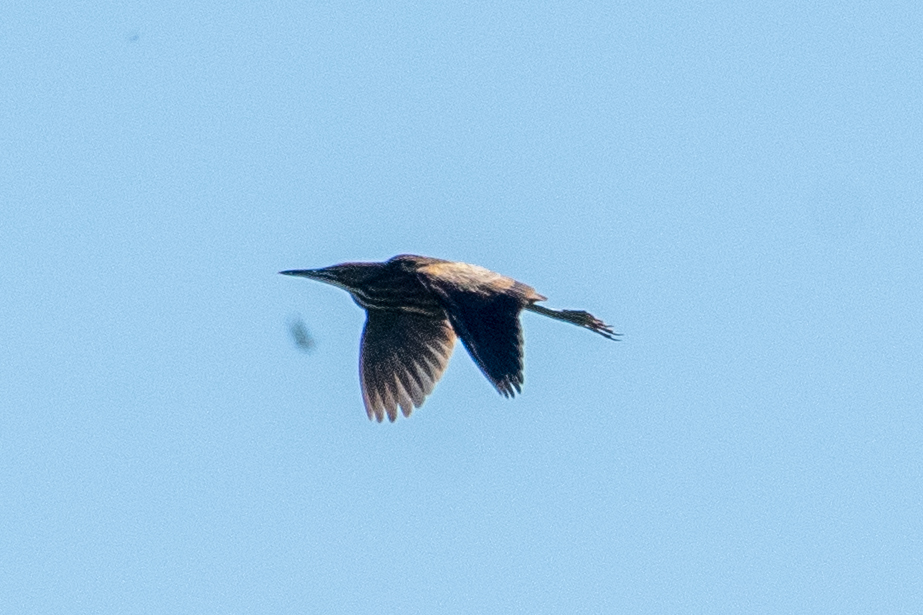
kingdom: Animalia
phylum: Chordata
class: Aves
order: Pelecaniformes
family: Ardeidae
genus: Botaurus
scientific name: Botaurus lentiginosus
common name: American bittern
